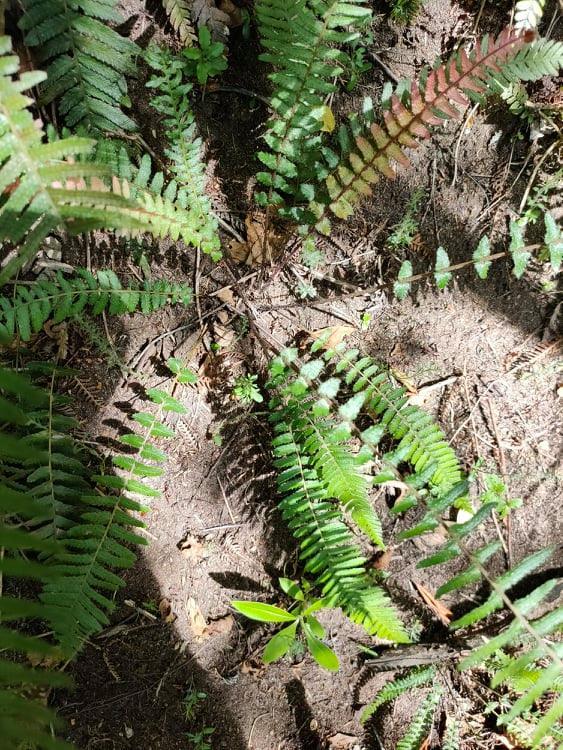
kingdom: Plantae
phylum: Tracheophyta
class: Polypodiopsida
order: Polypodiales
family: Blechnaceae
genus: Doodia
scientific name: Doodia australis
